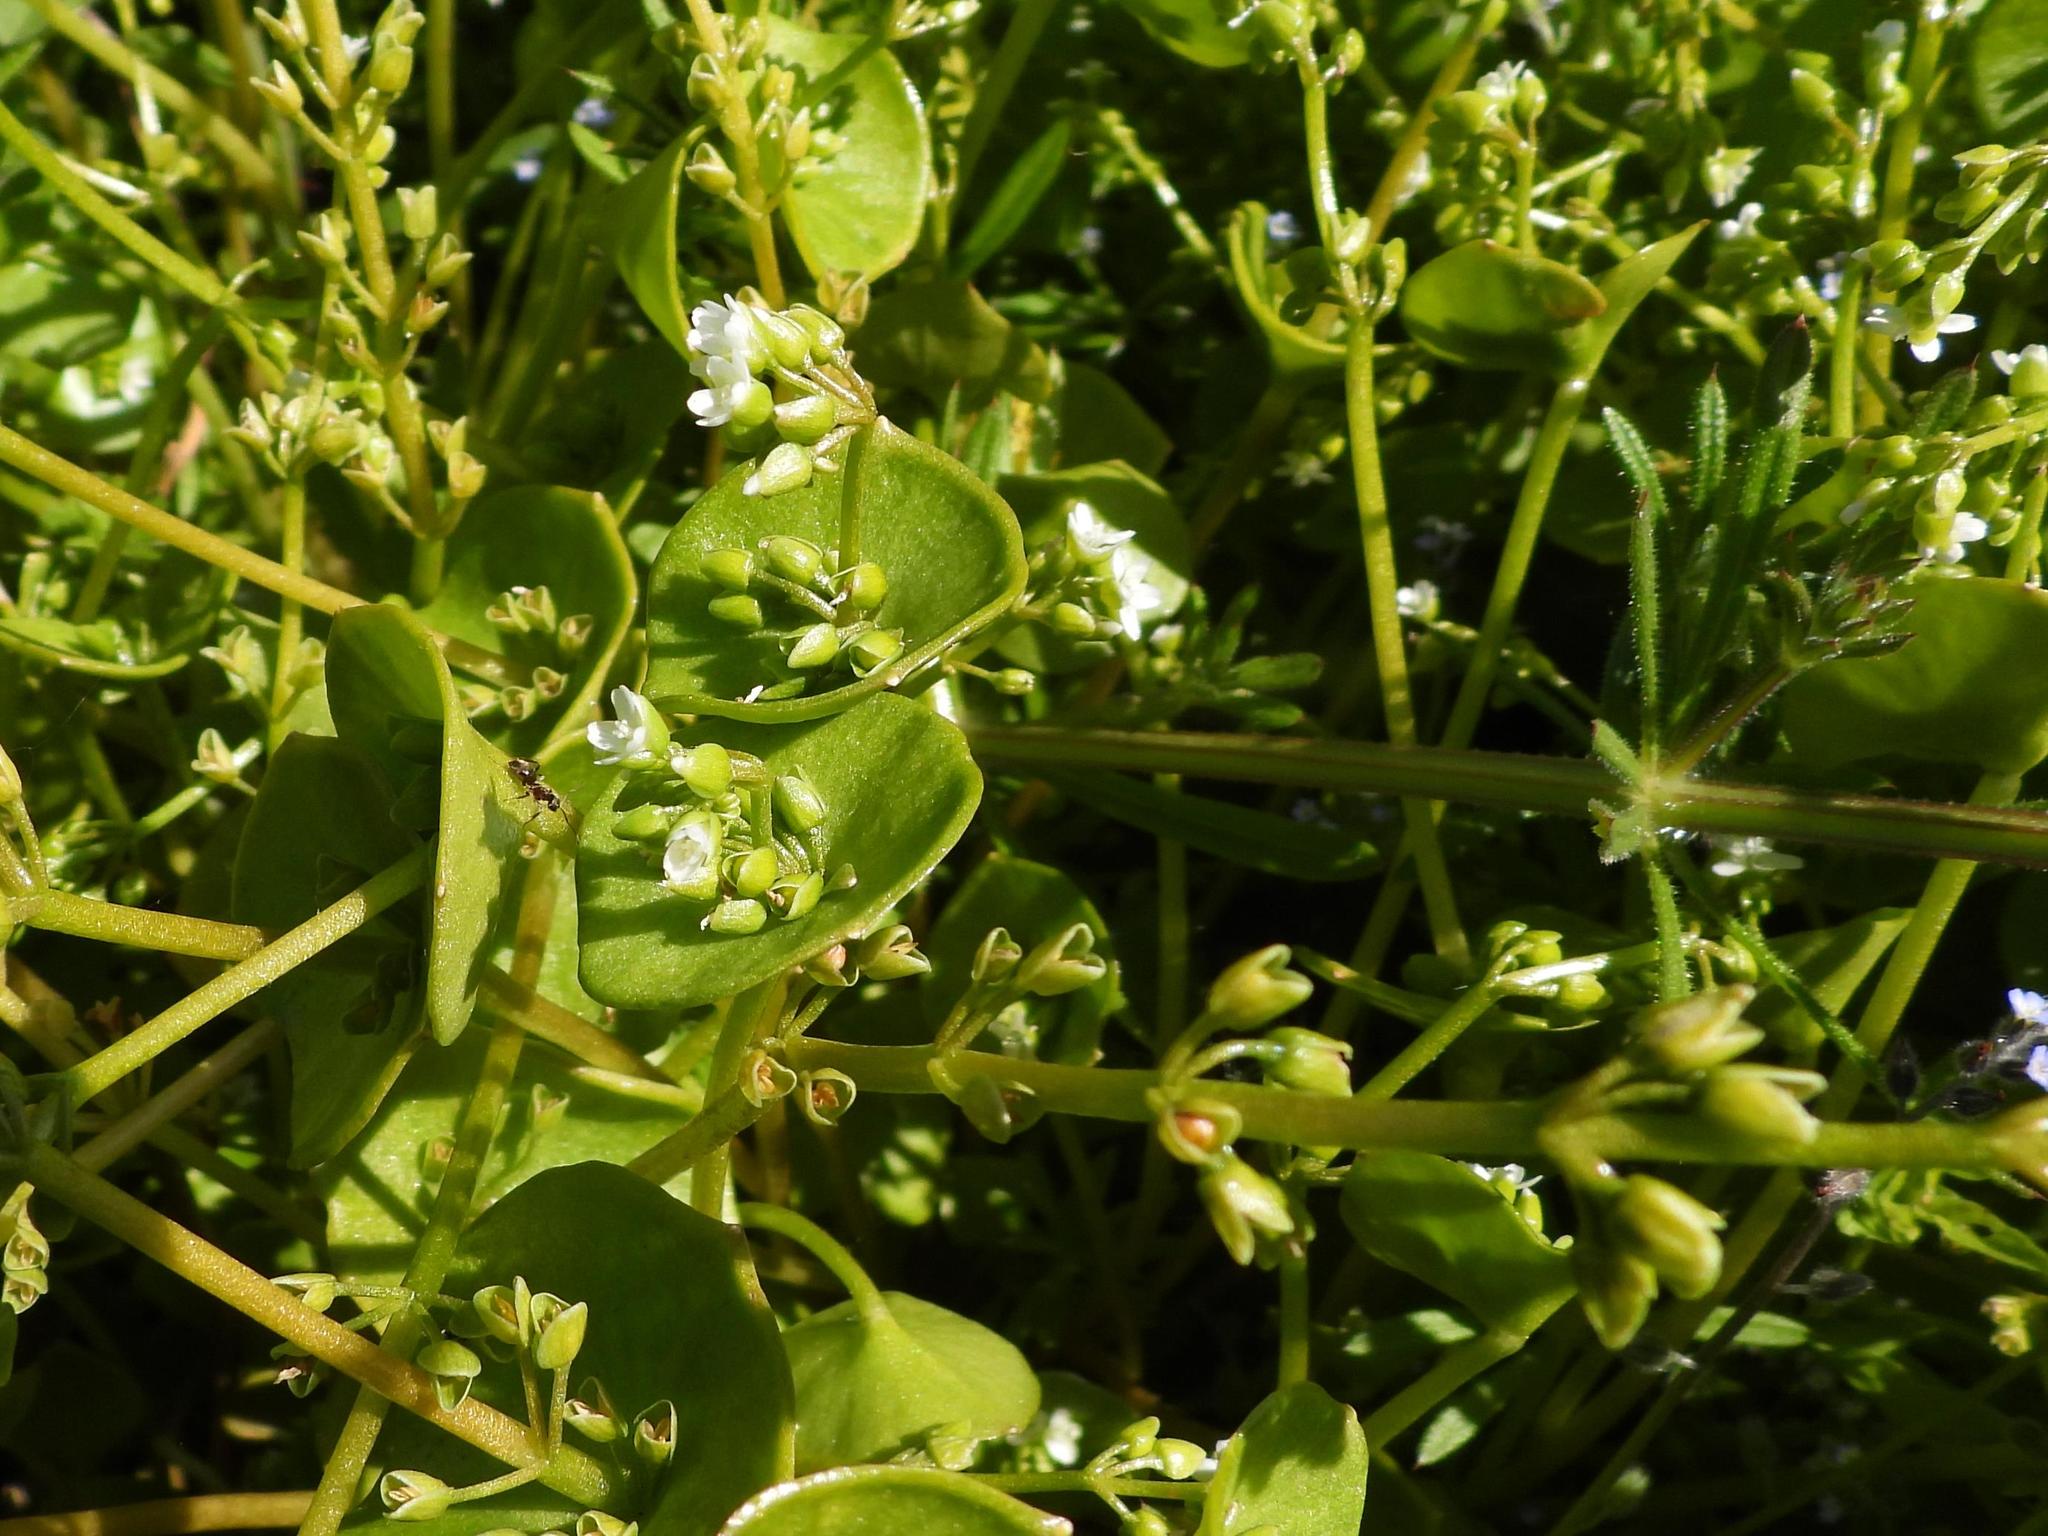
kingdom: Plantae
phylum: Tracheophyta
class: Magnoliopsida
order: Caryophyllales
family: Montiaceae
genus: Claytonia
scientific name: Claytonia perfoliata
